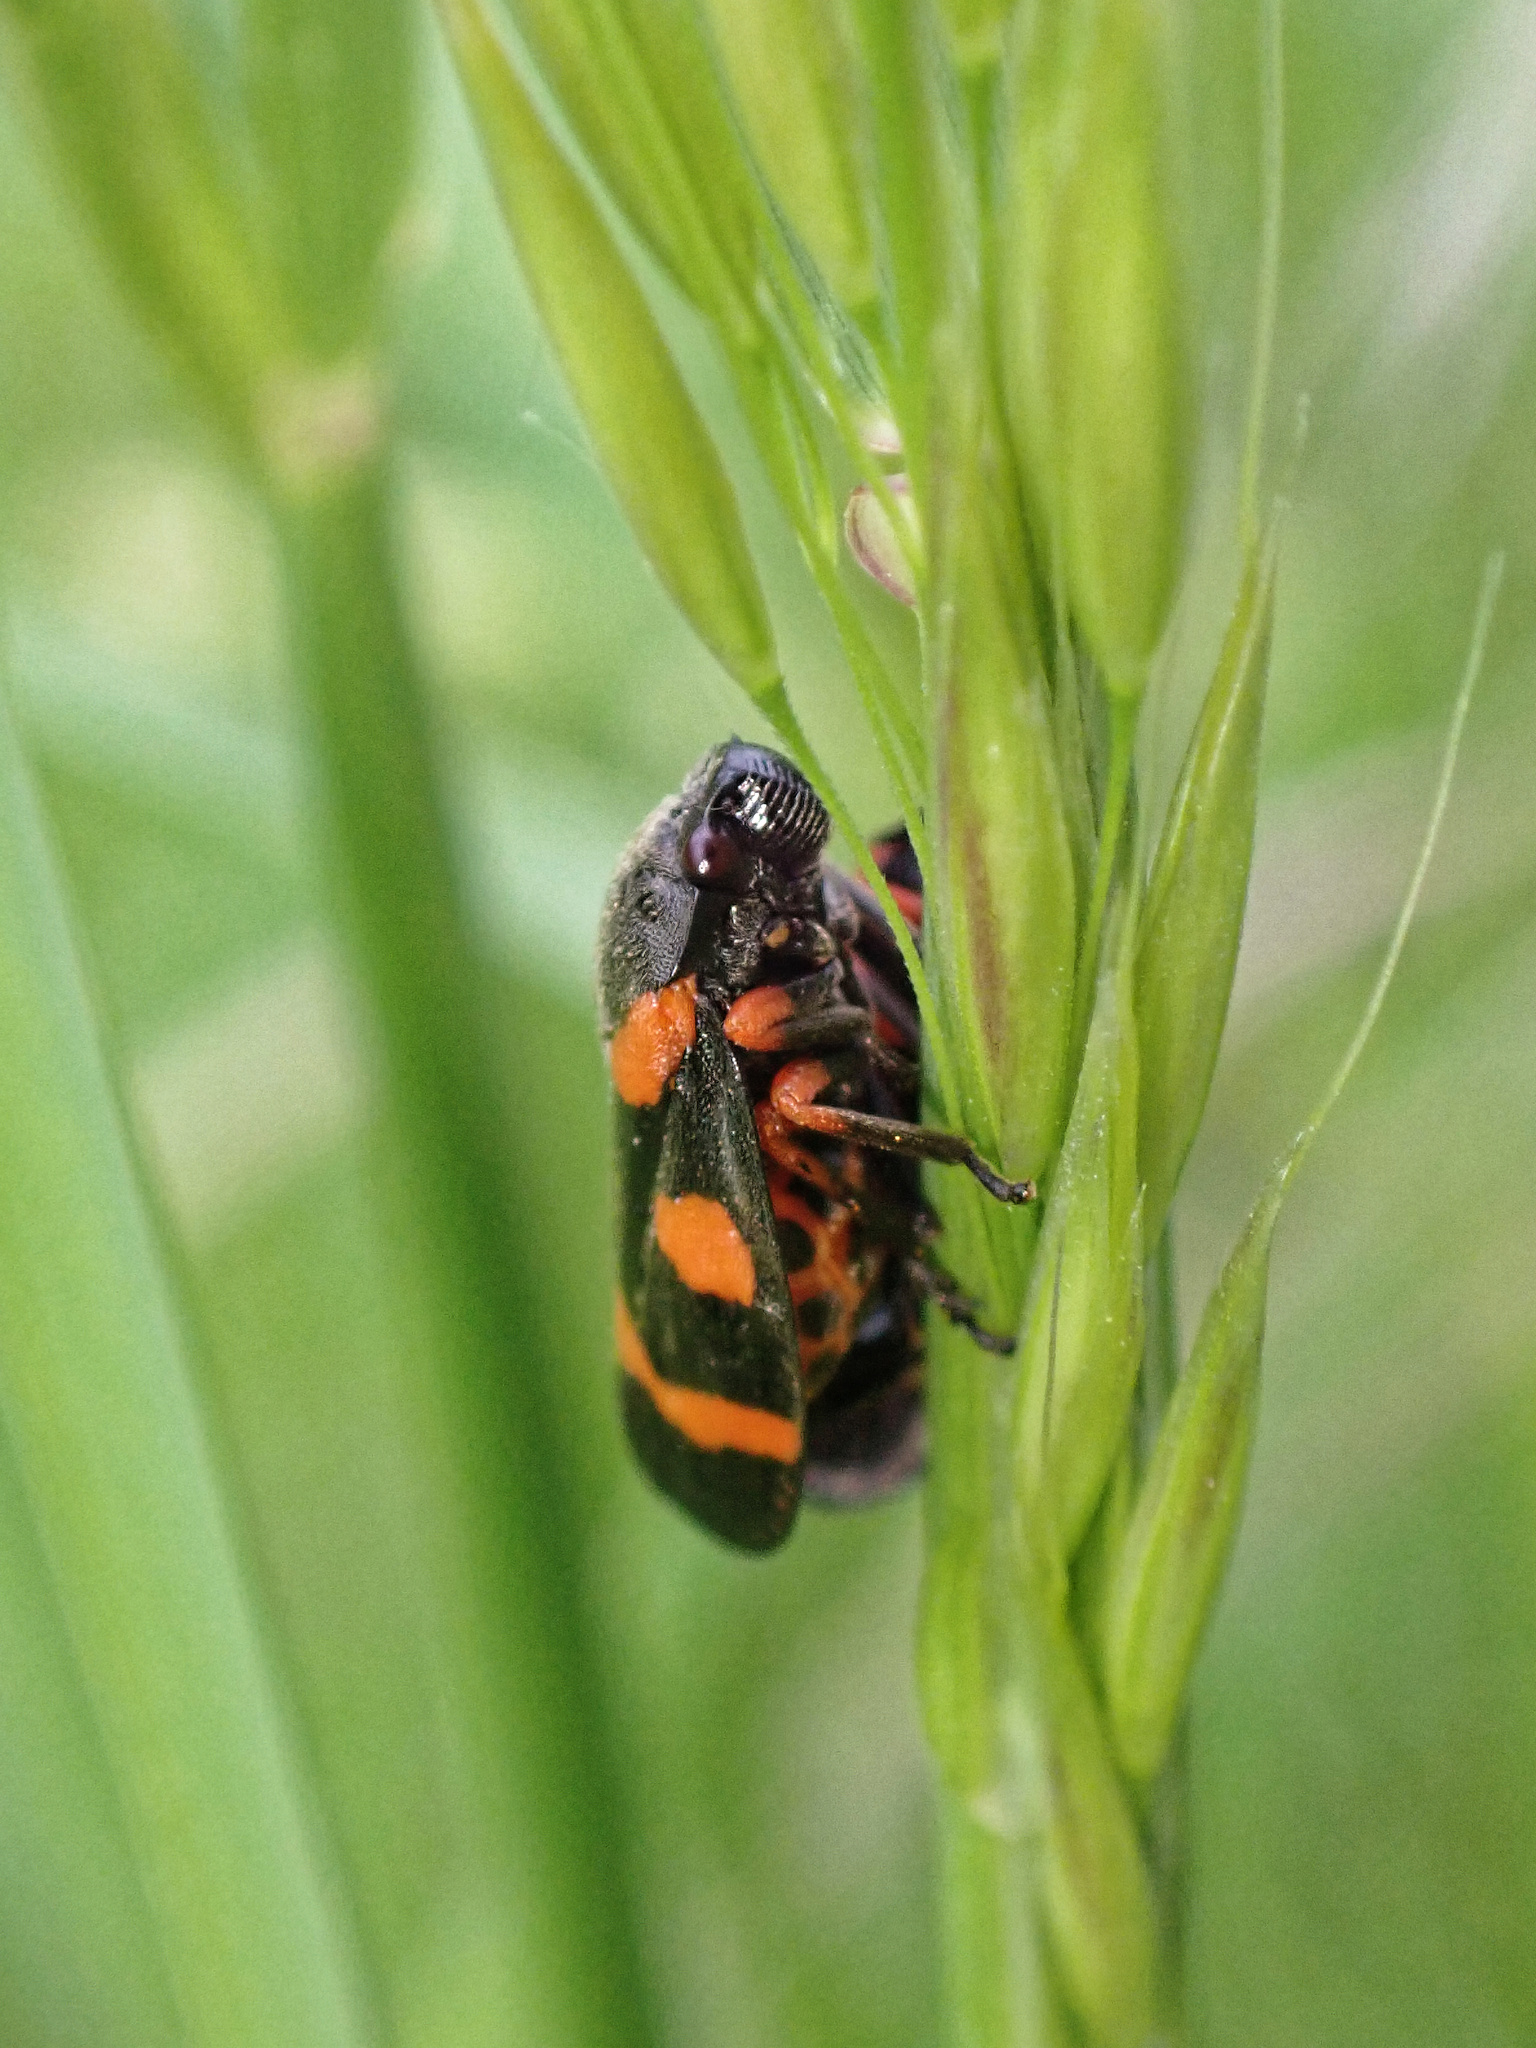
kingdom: Animalia
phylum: Arthropoda
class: Insecta
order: Hemiptera
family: Cercopidae
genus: Cercopis
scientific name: Cercopis intermedia
